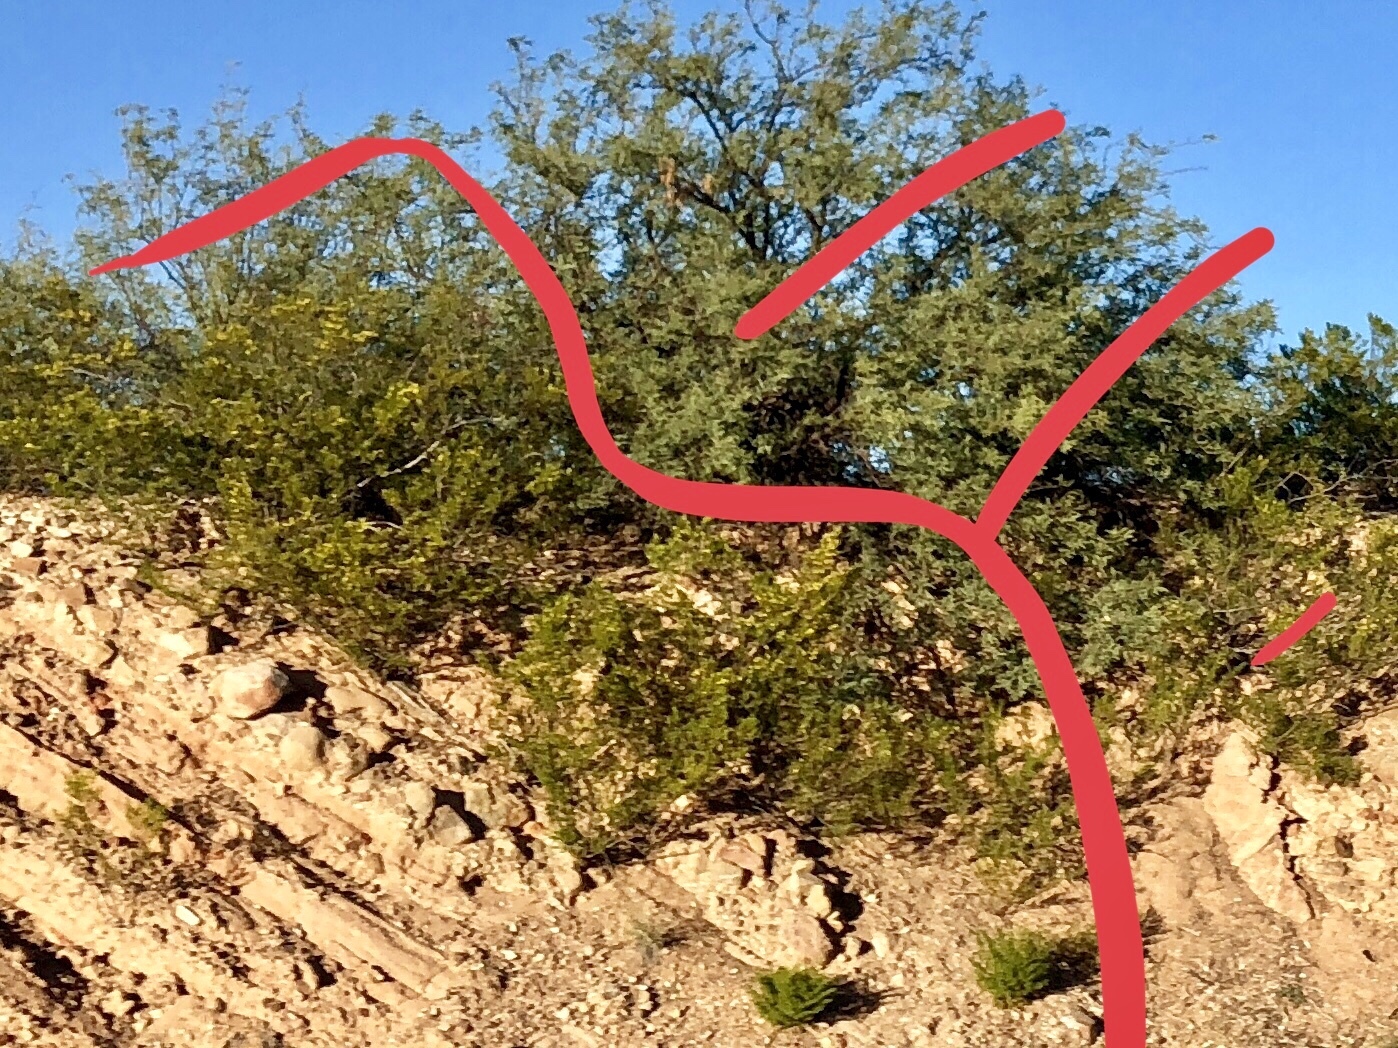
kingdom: Plantae
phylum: Tracheophyta
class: Magnoliopsida
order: Zygophyllales
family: Zygophyllaceae
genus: Larrea
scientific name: Larrea tridentata
